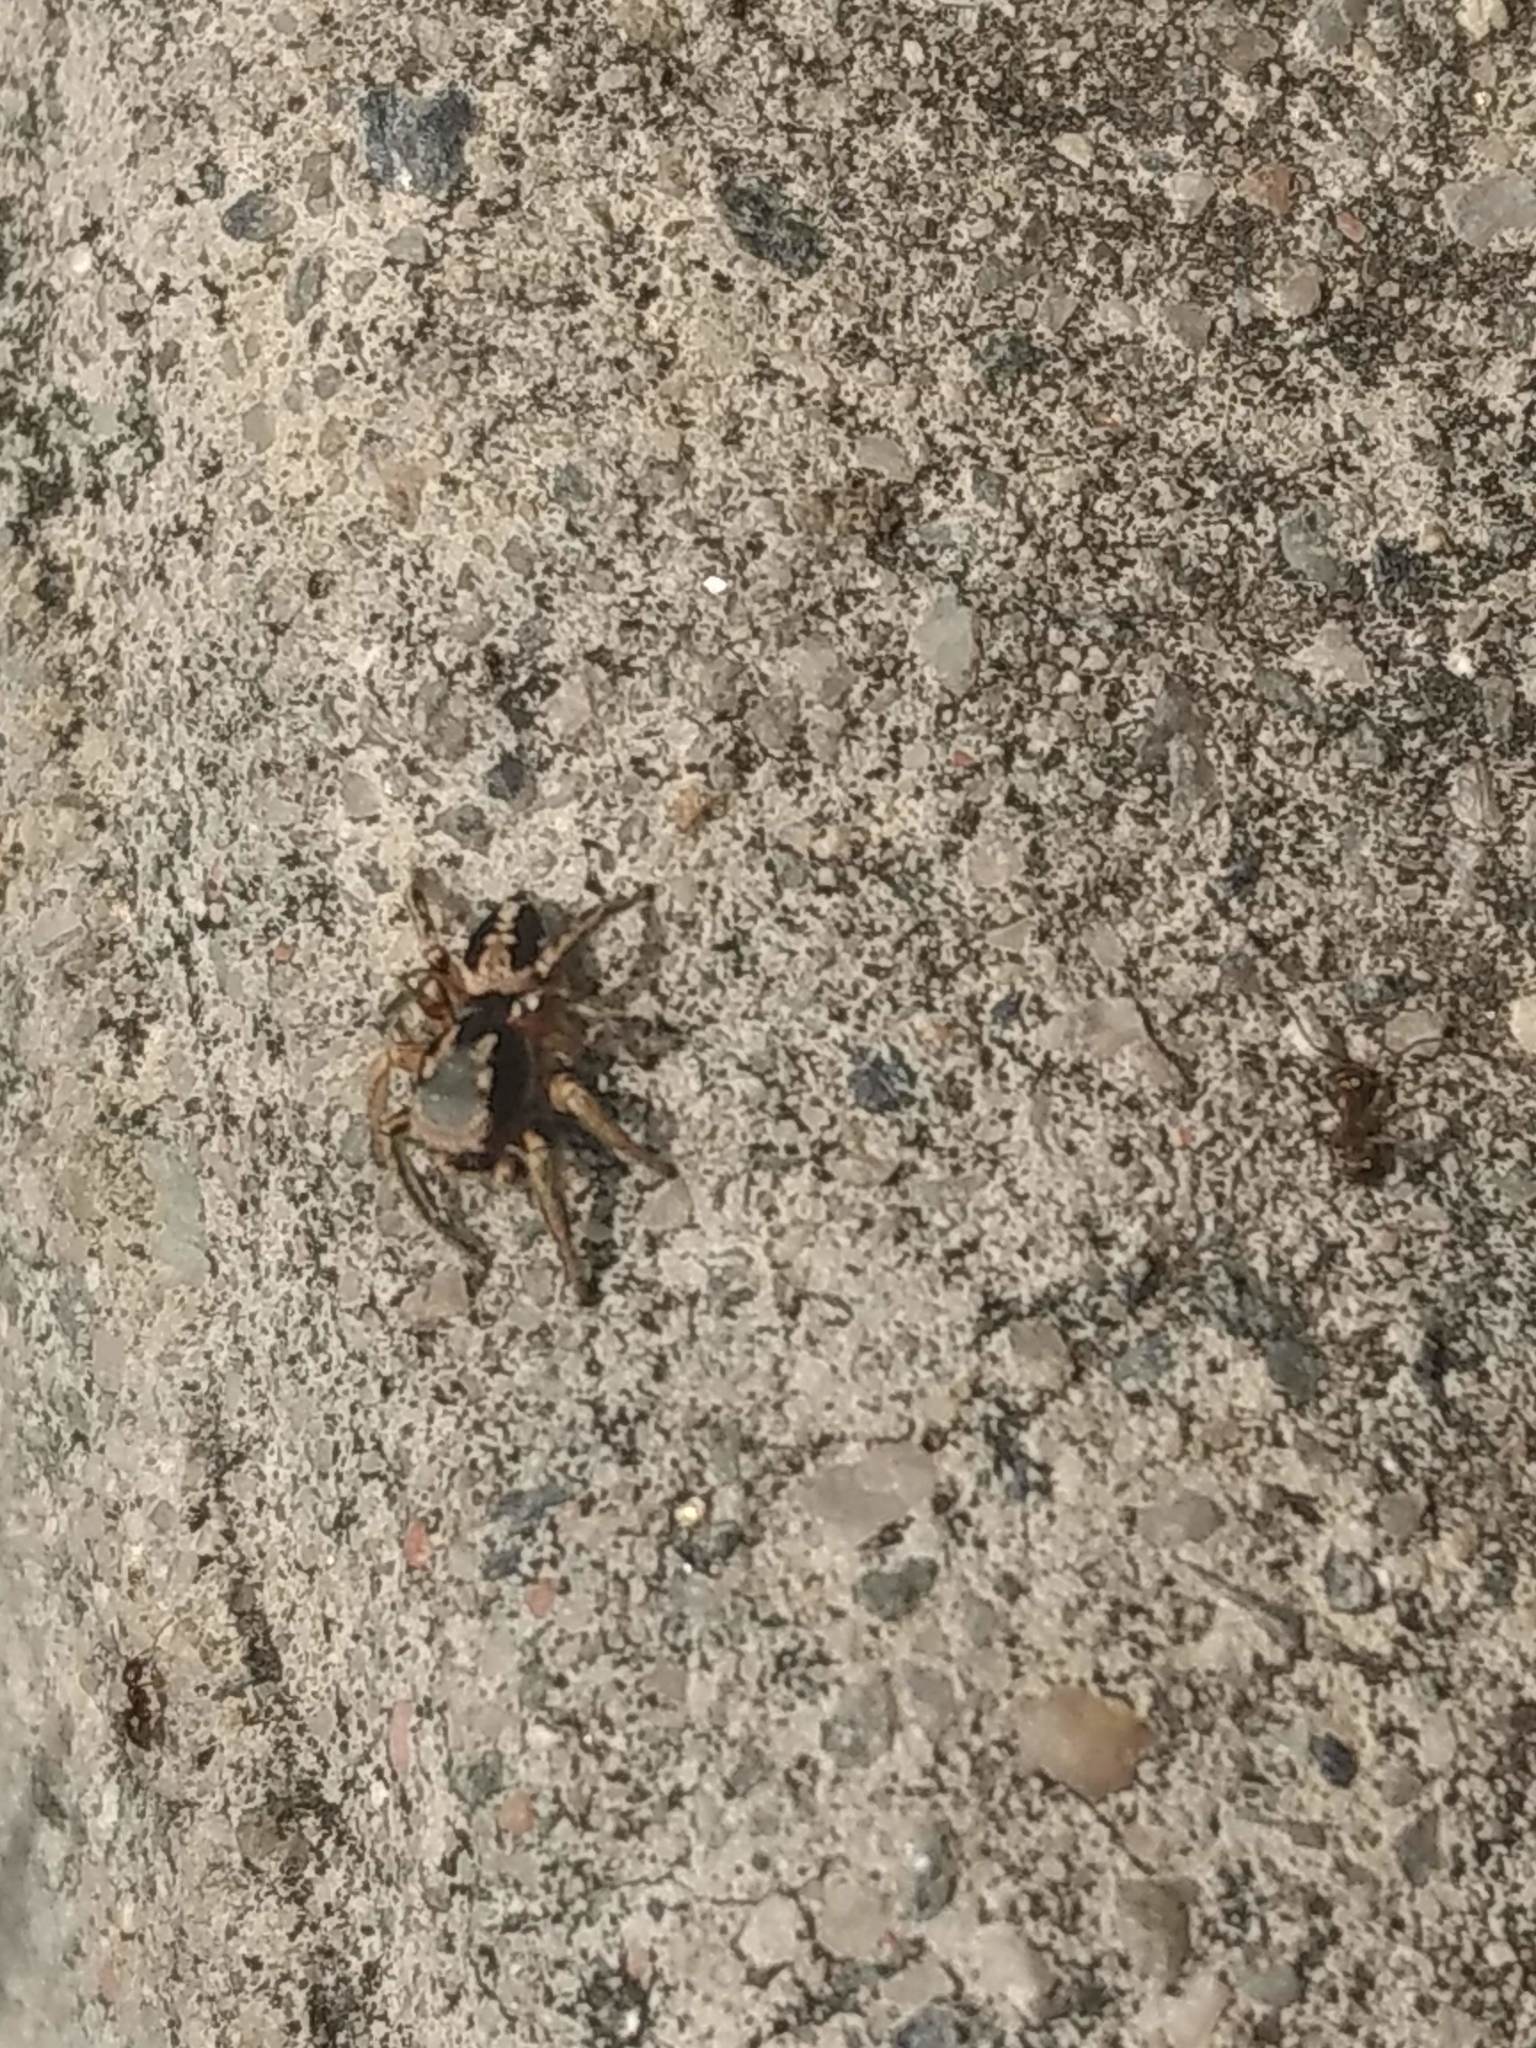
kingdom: Animalia
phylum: Arthropoda
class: Arachnida
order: Araneae
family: Salticidae
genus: Habronattus
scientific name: Habronattus pyrrithrix
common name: Jumping spider
